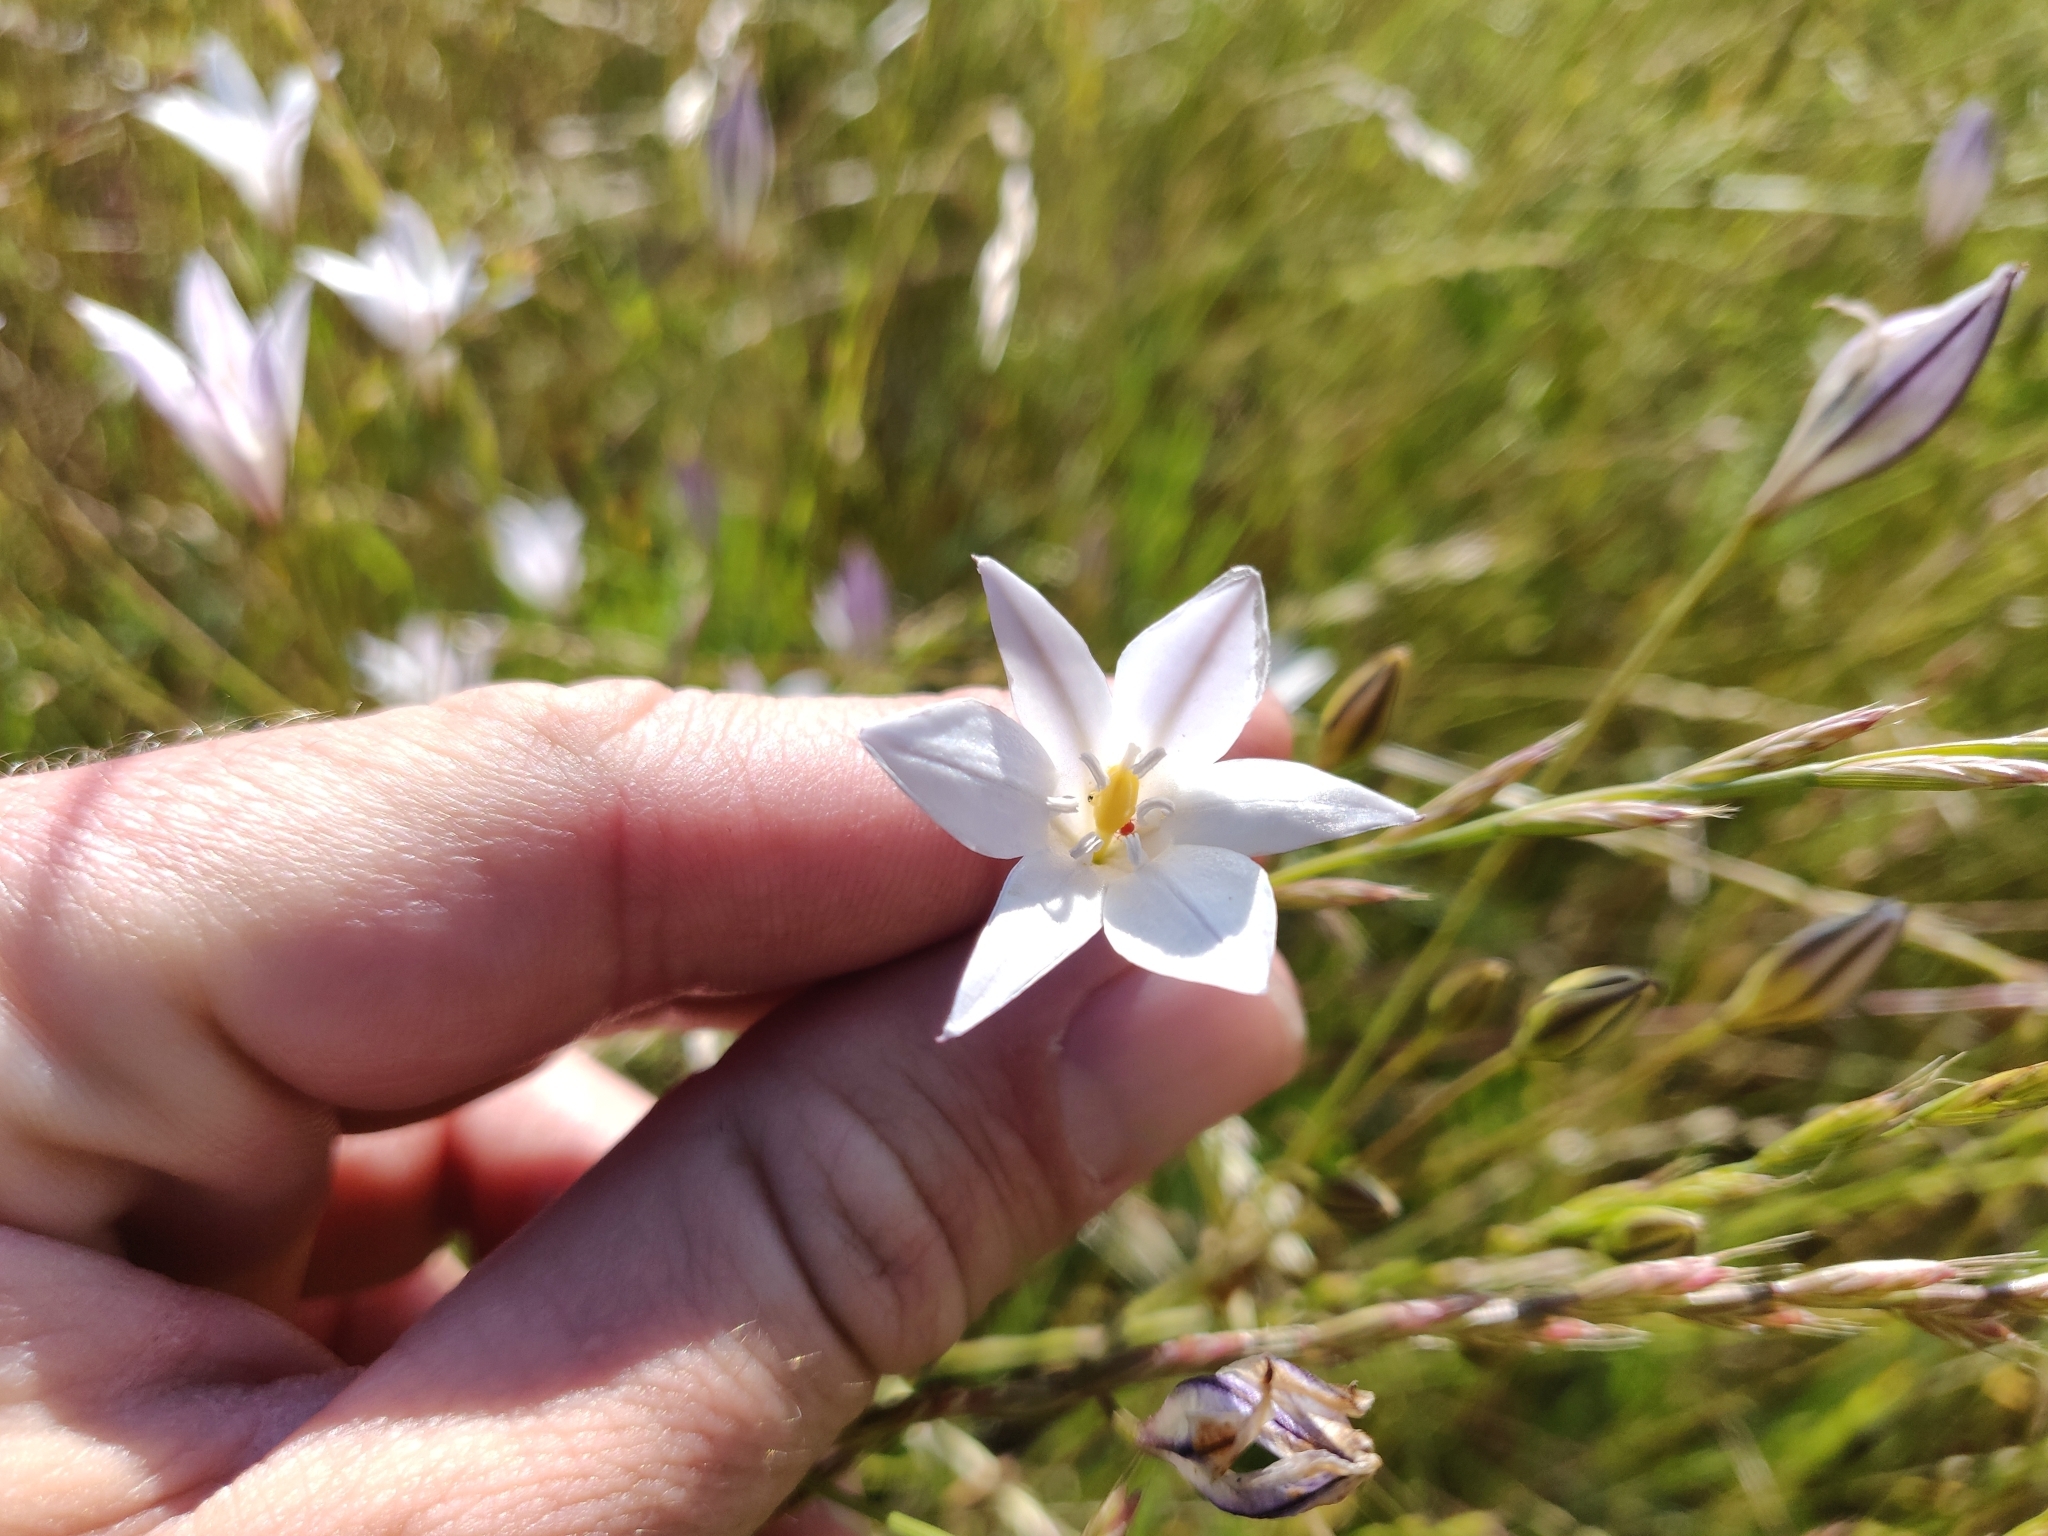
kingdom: Plantae
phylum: Tracheophyta
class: Liliopsida
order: Asparagales
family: Asparagaceae
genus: Triteleia
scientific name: Triteleia peduncularis
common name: Long-ray brodiaea
